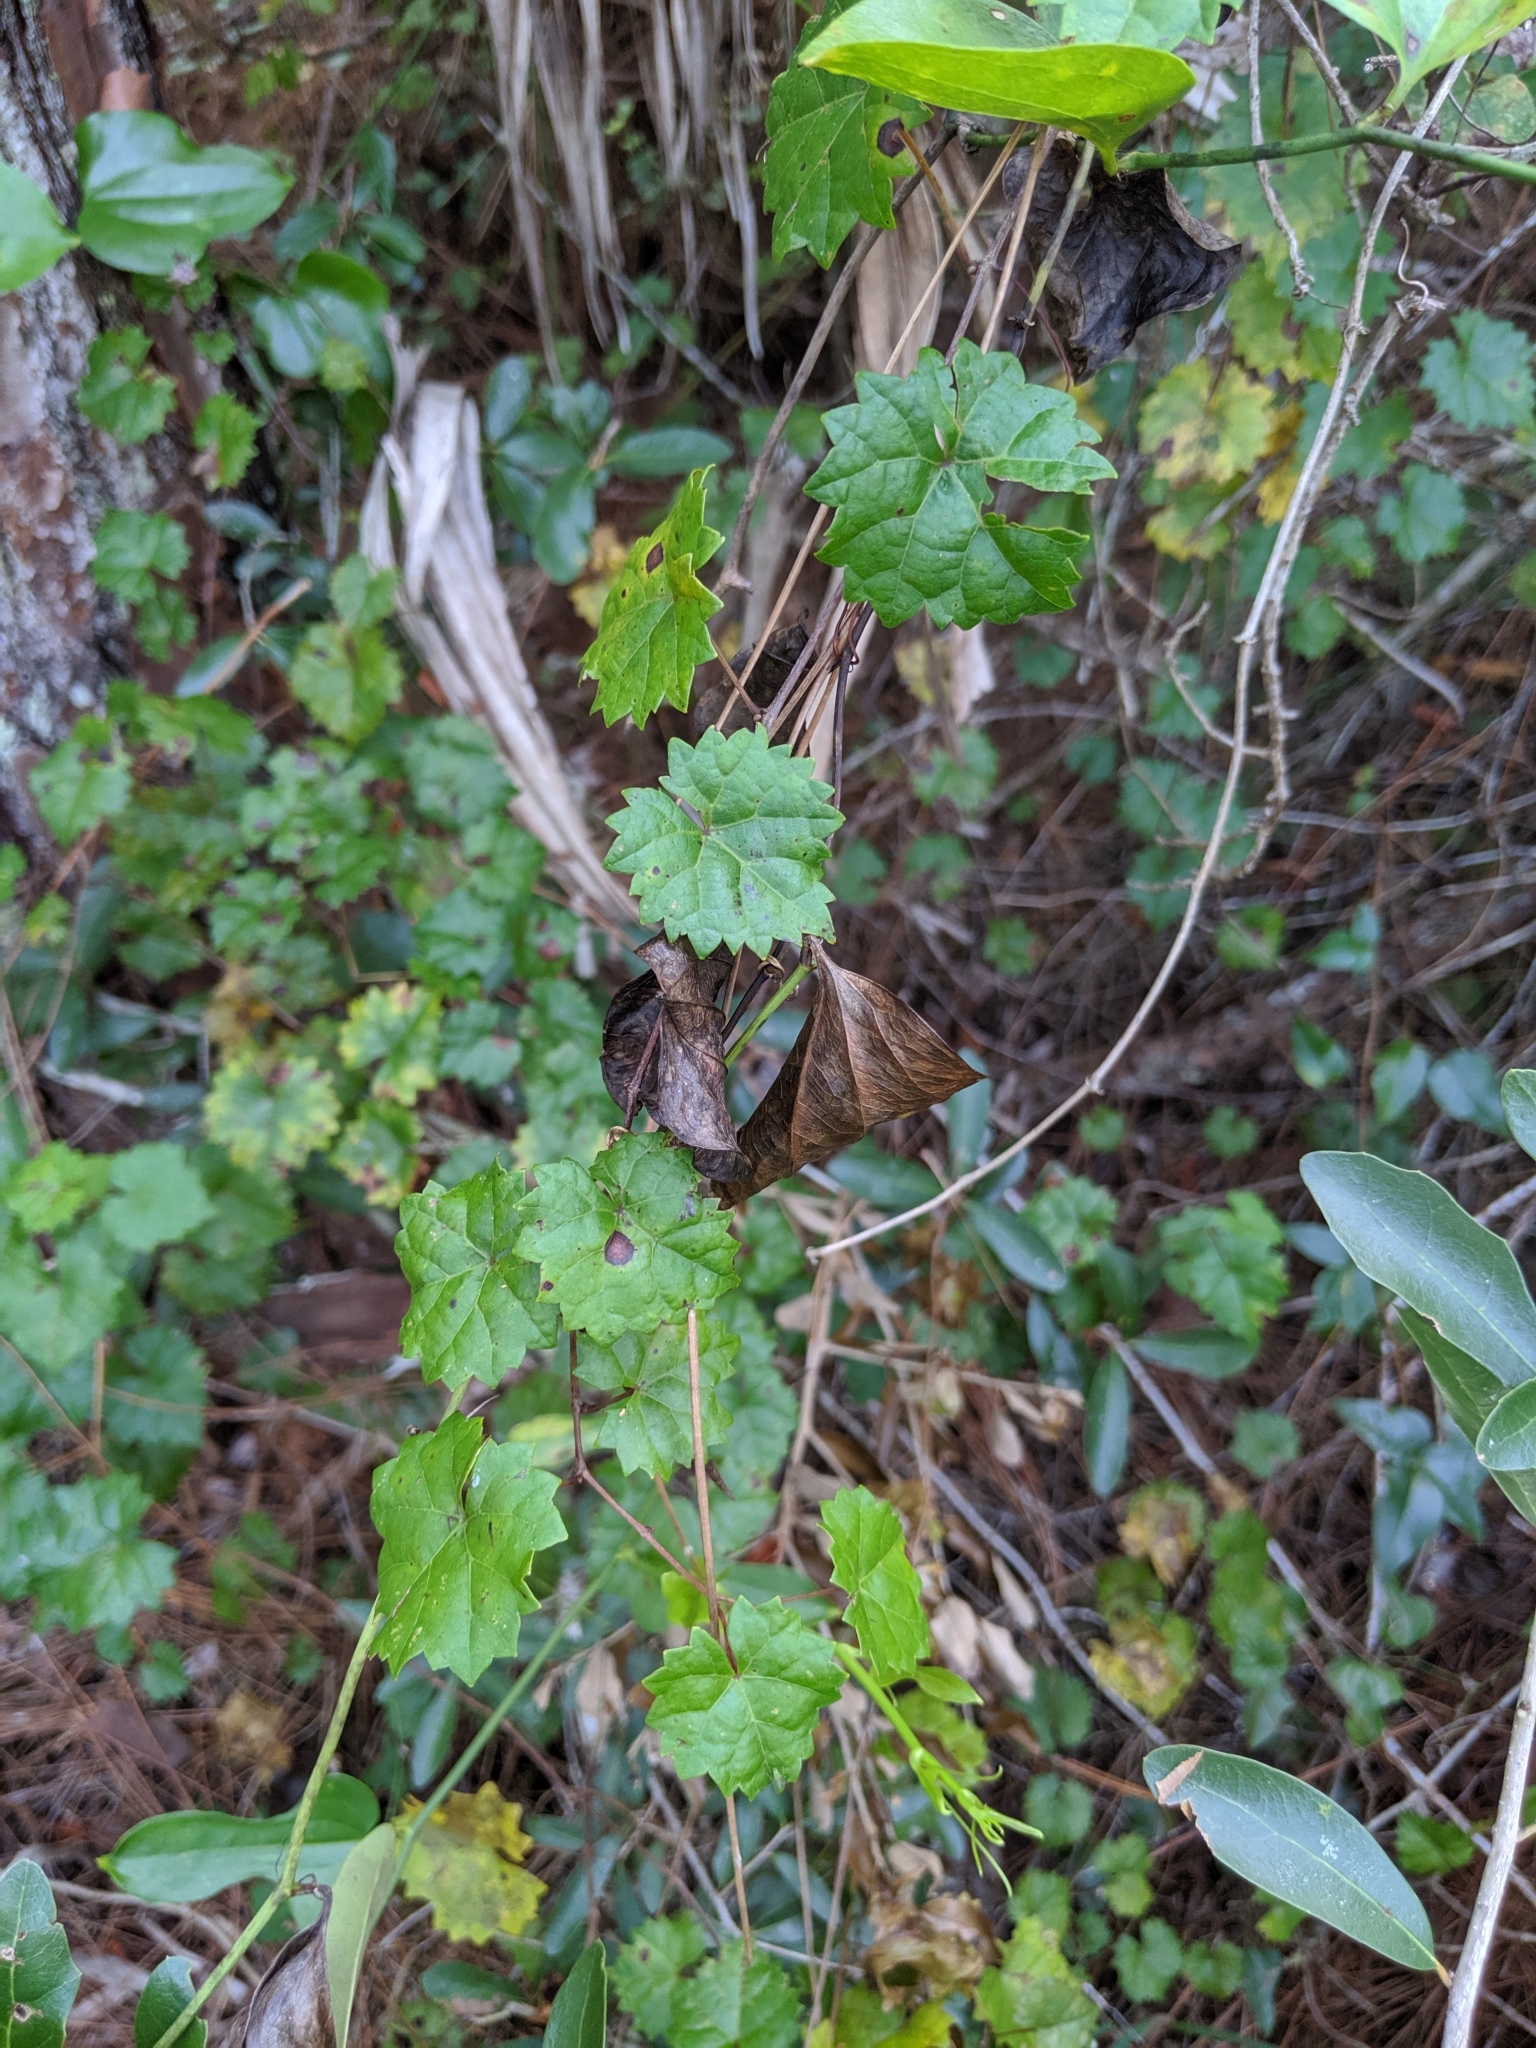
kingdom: Plantae
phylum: Tracheophyta
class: Magnoliopsida
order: Vitales
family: Vitaceae
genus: Vitis
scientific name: Vitis rotundifolia
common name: Muscadine grape
